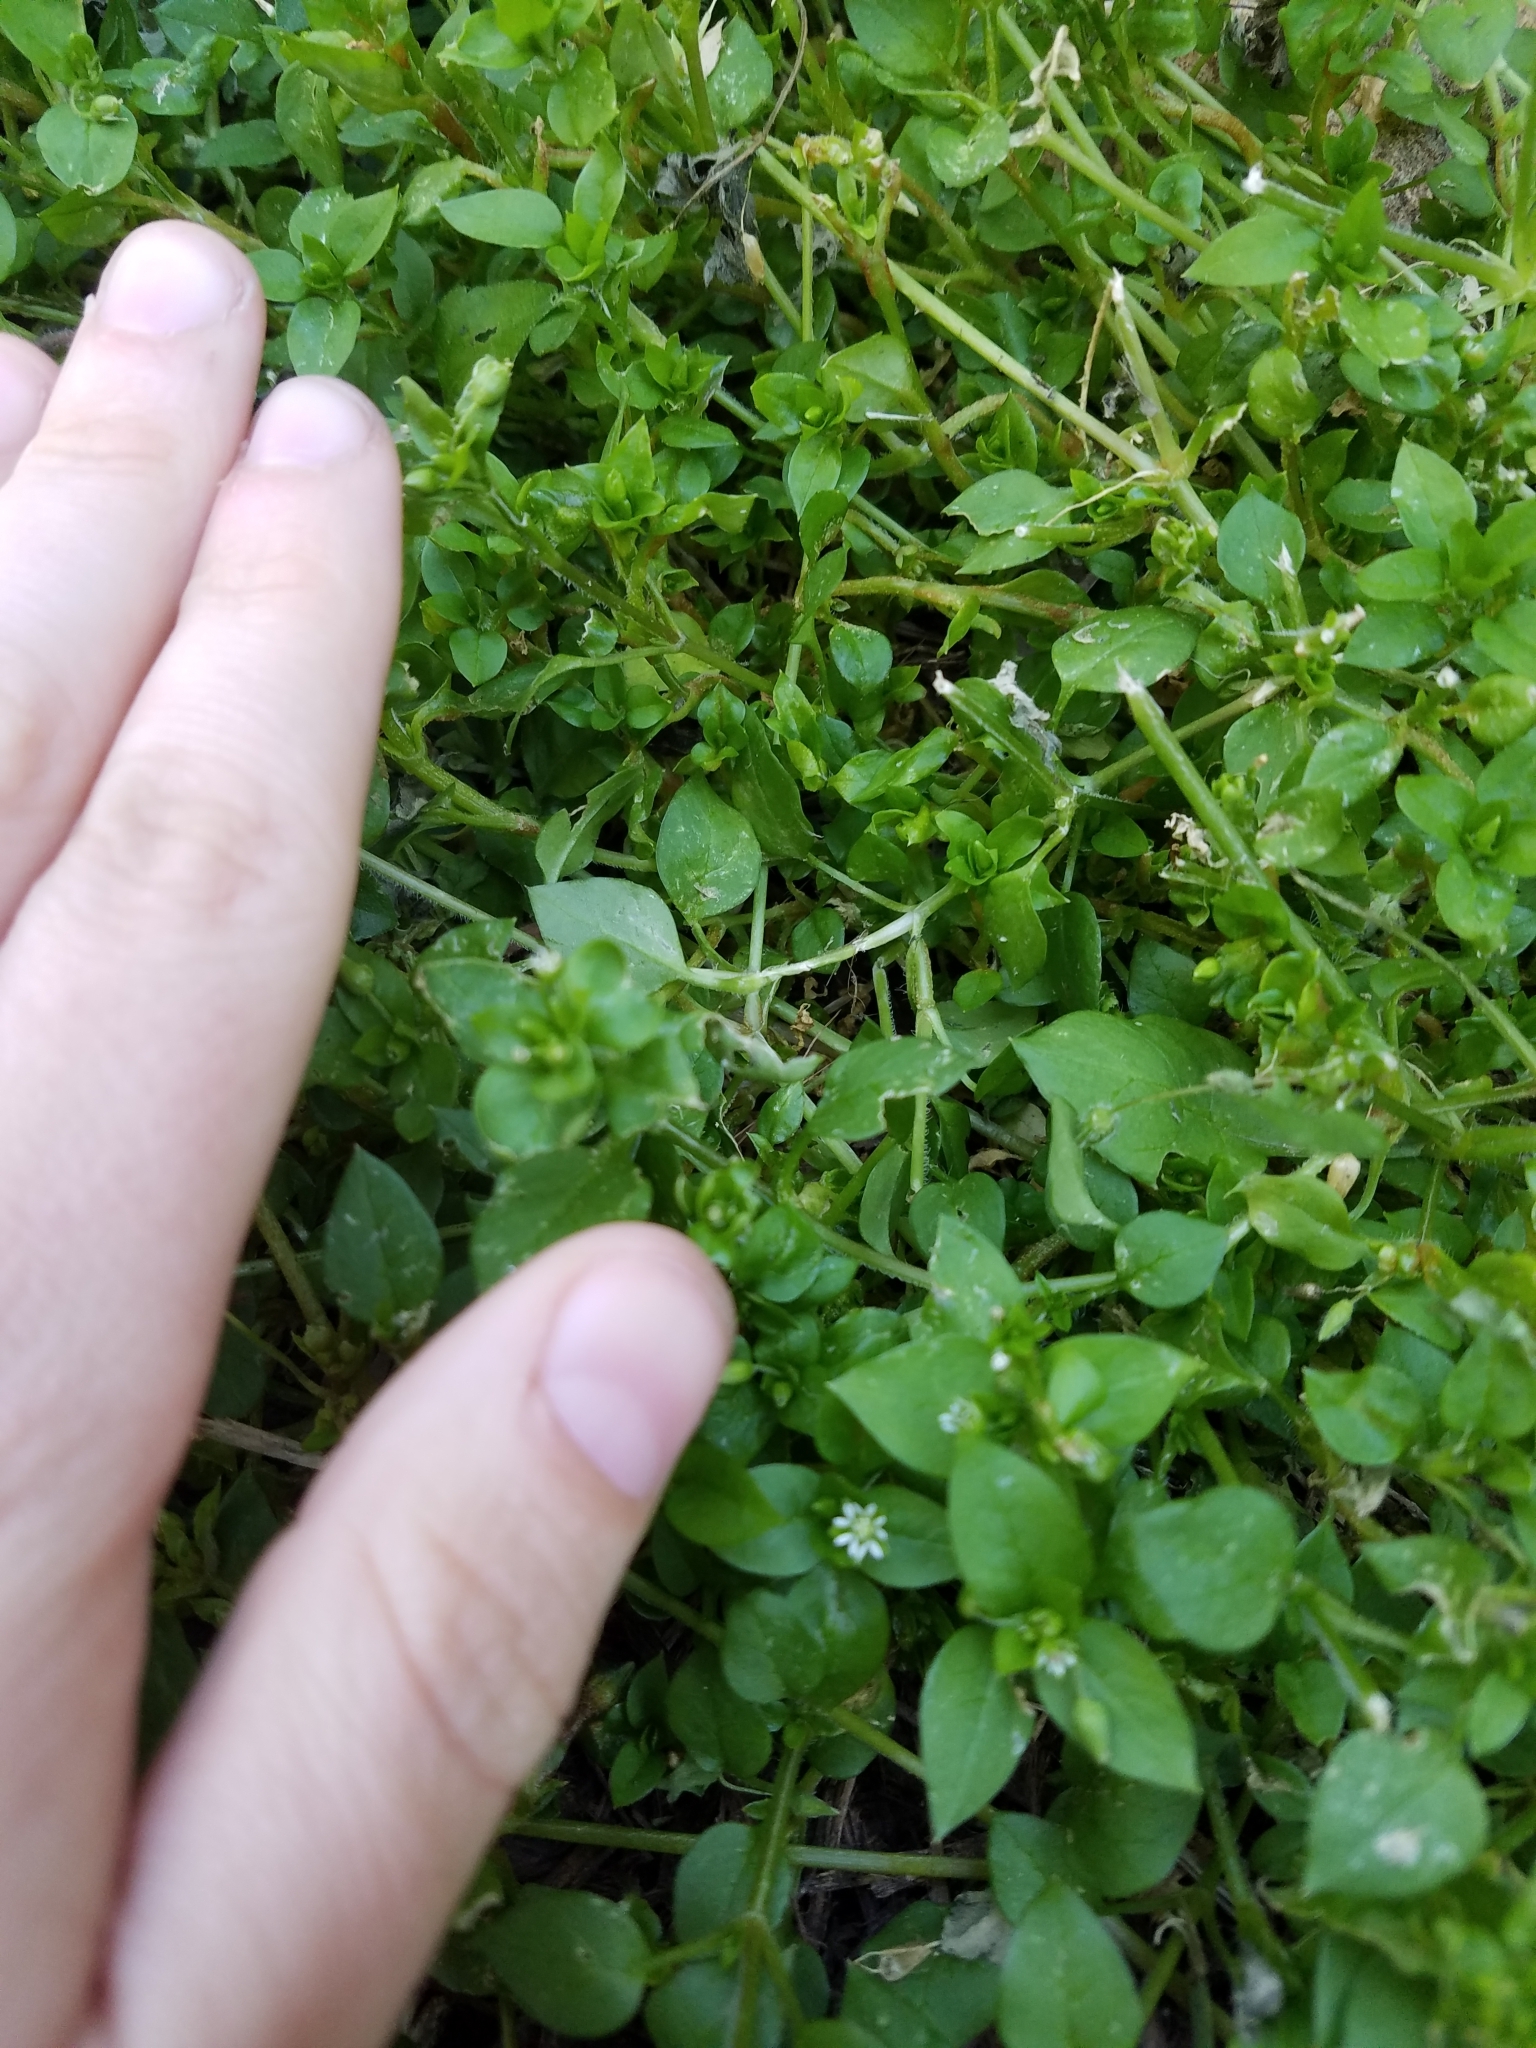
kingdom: Plantae
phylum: Tracheophyta
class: Magnoliopsida
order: Caryophyllales
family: Caryophyllaceae
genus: Stellaria
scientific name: Stellaria media
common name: Common chickweed
